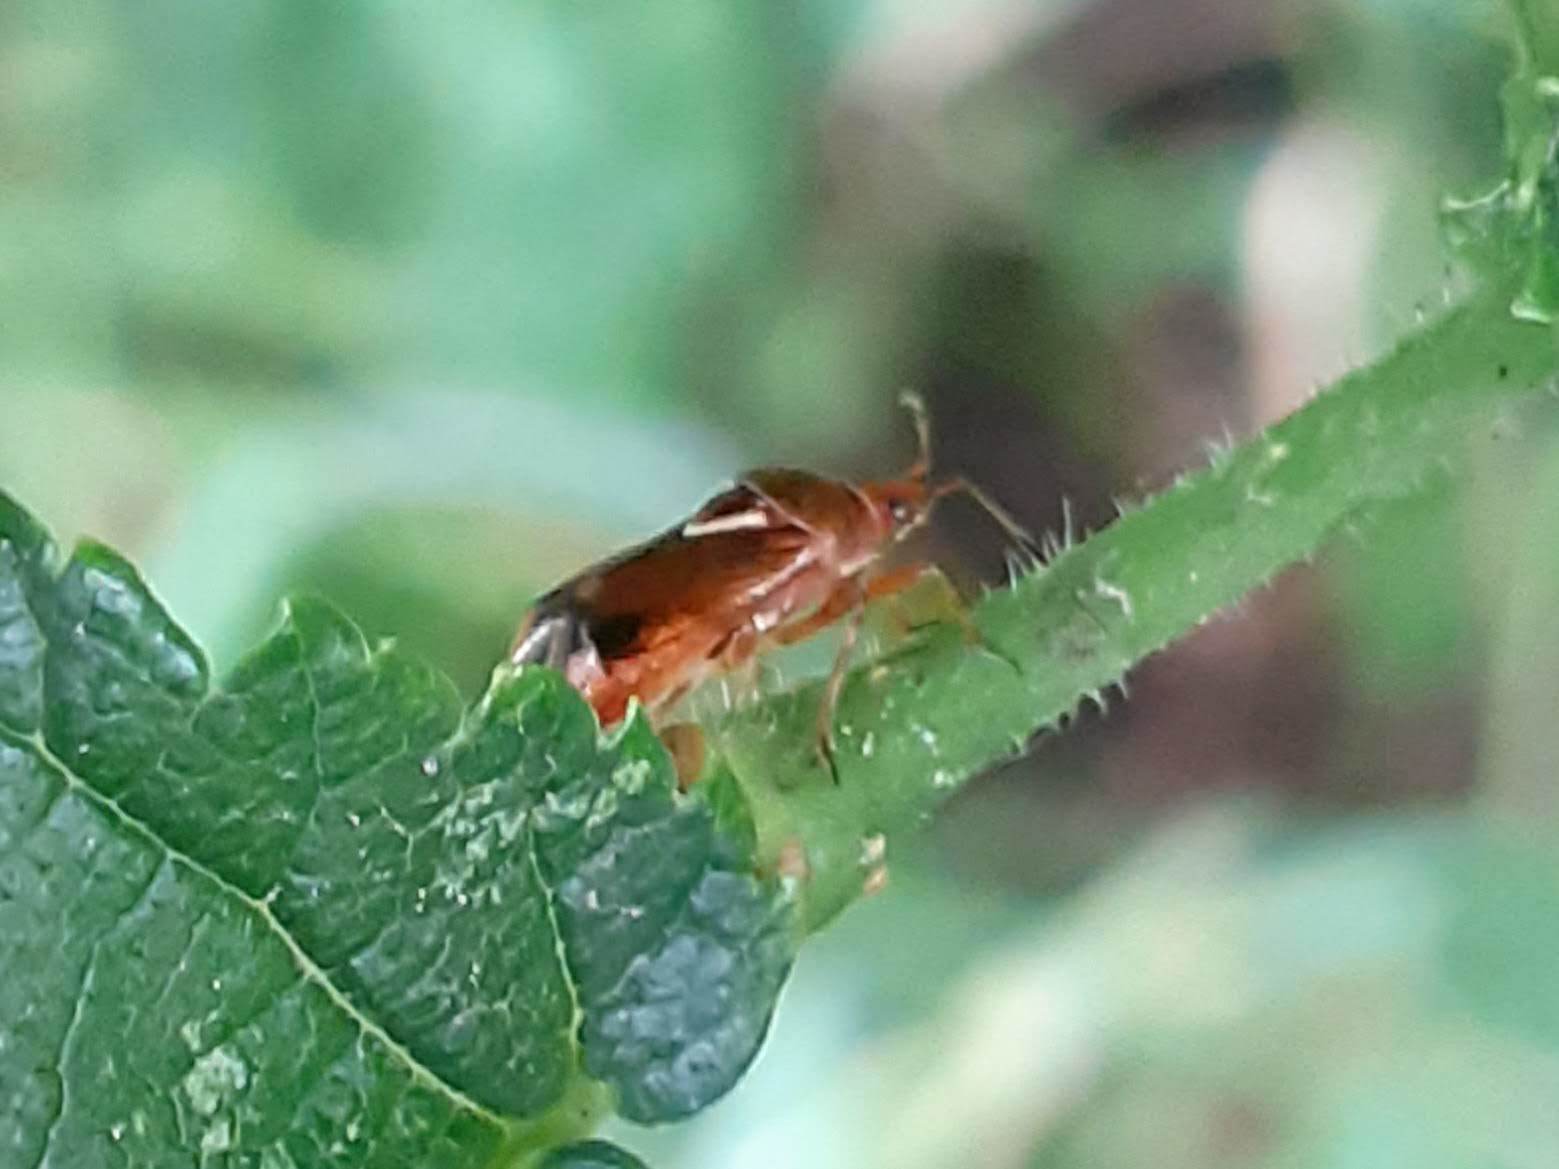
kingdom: Animalia
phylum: Arthropoda
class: Insecta
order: Hemiptera
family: Miridae
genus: Deraeocoris
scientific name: Deraeocoris flavilinea
